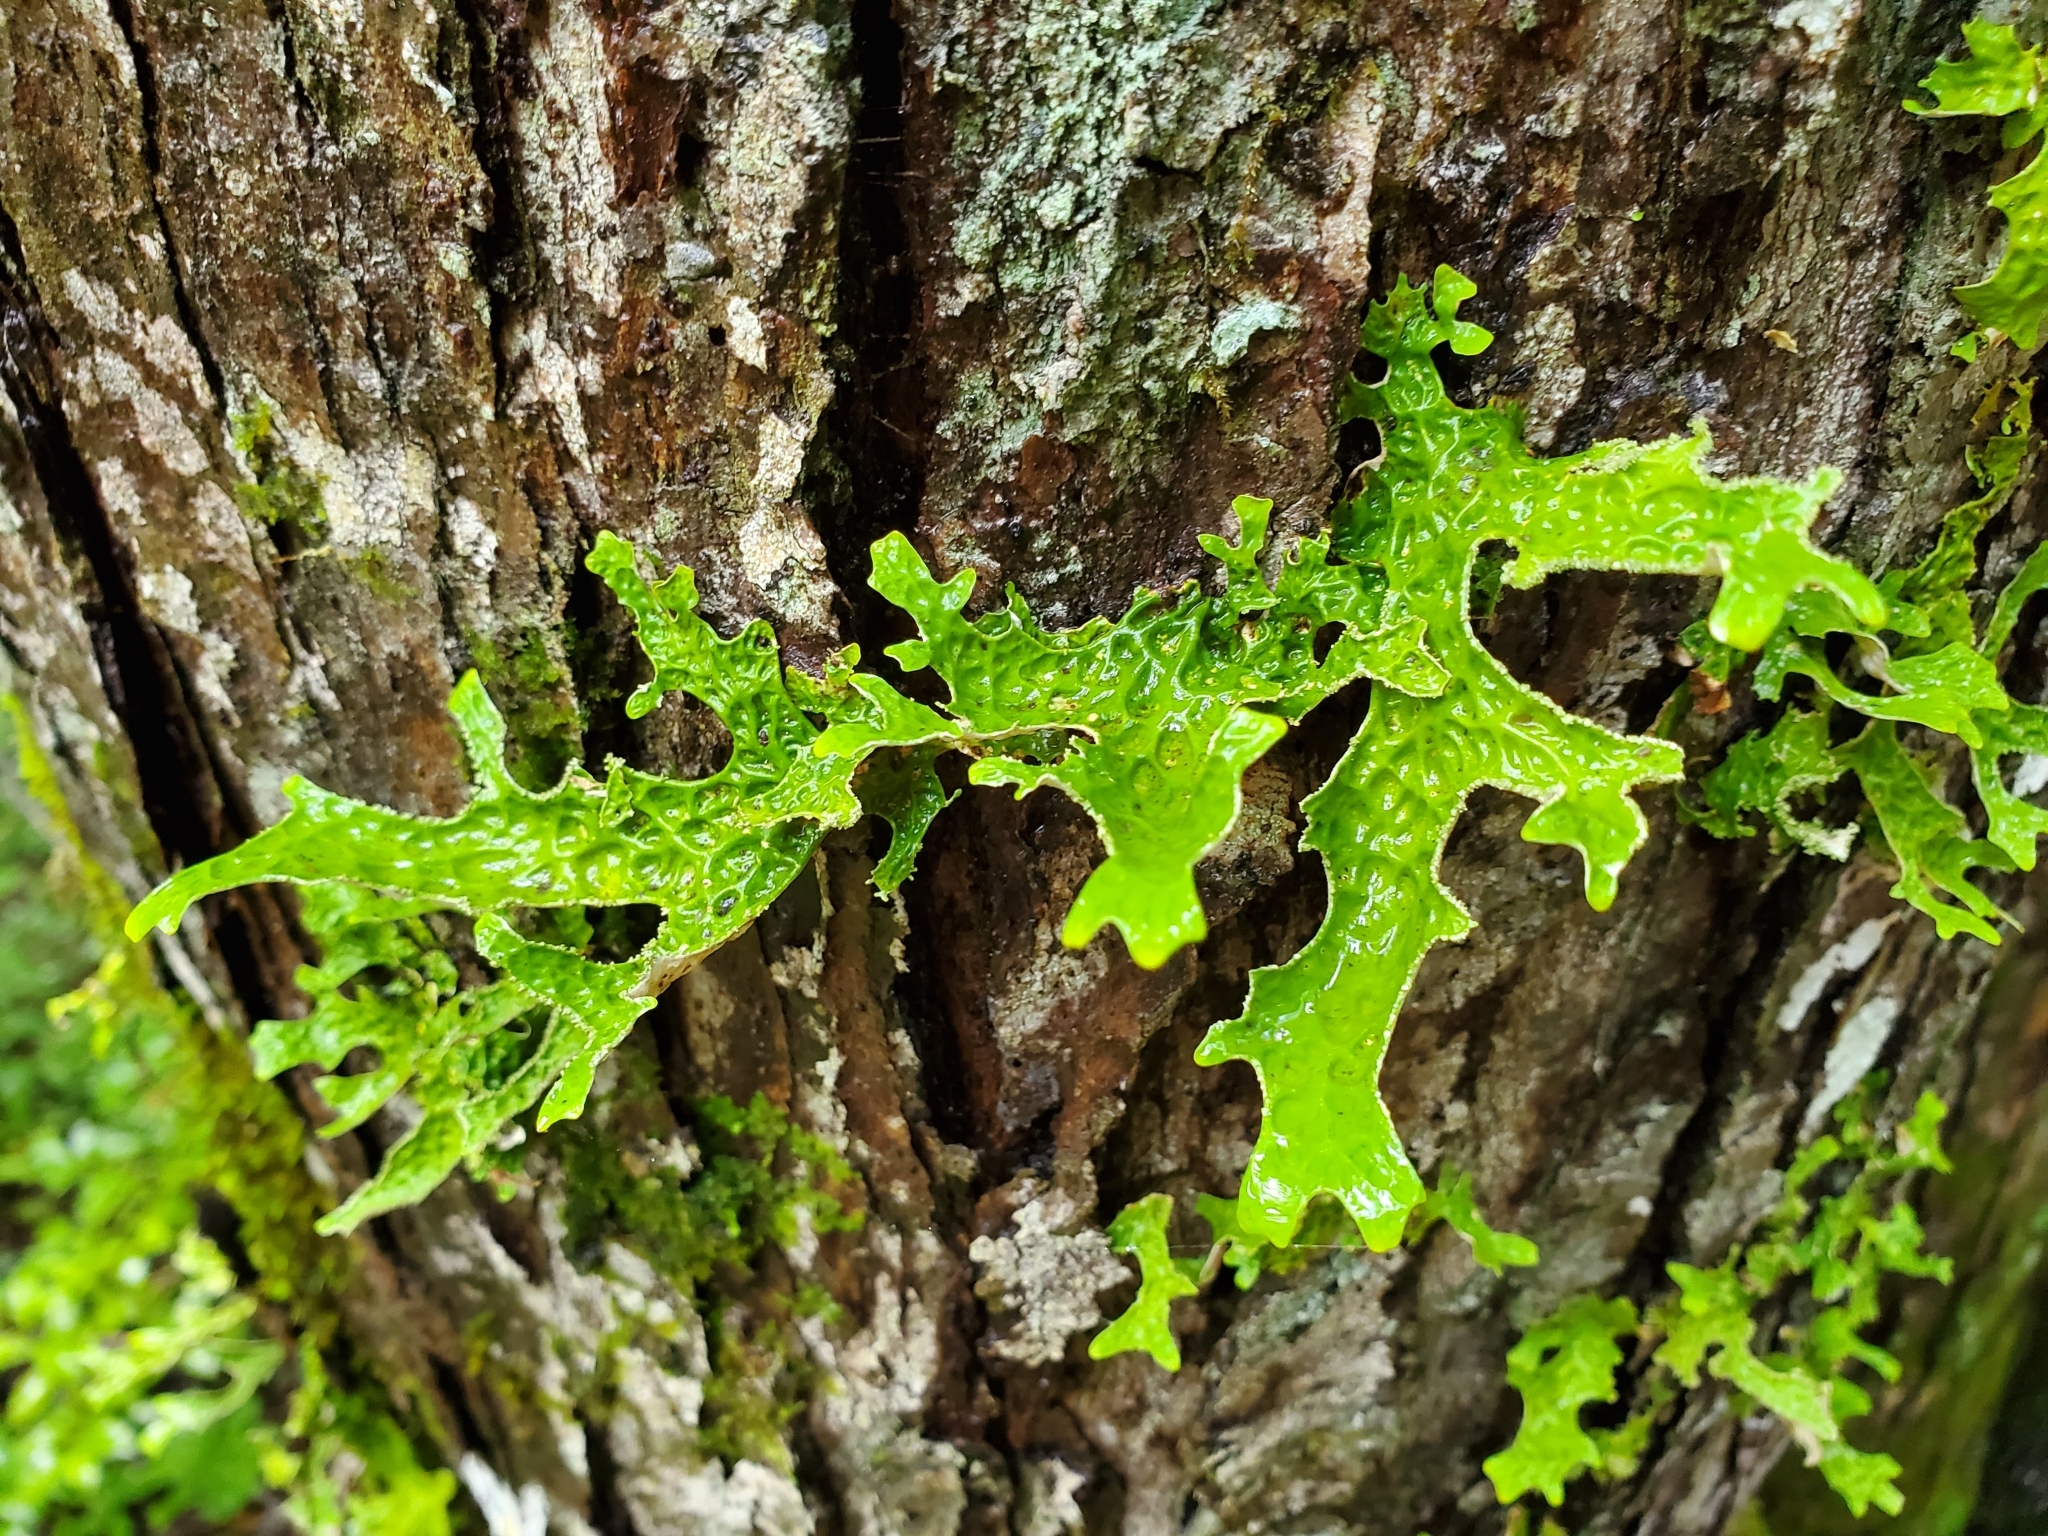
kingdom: Fungi
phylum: Ascomycota
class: Lecanoromycetes
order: Peltigerales
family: Lobariaceae
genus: Lobaria
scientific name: Lobaria pulmonaria
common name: Lungwort
